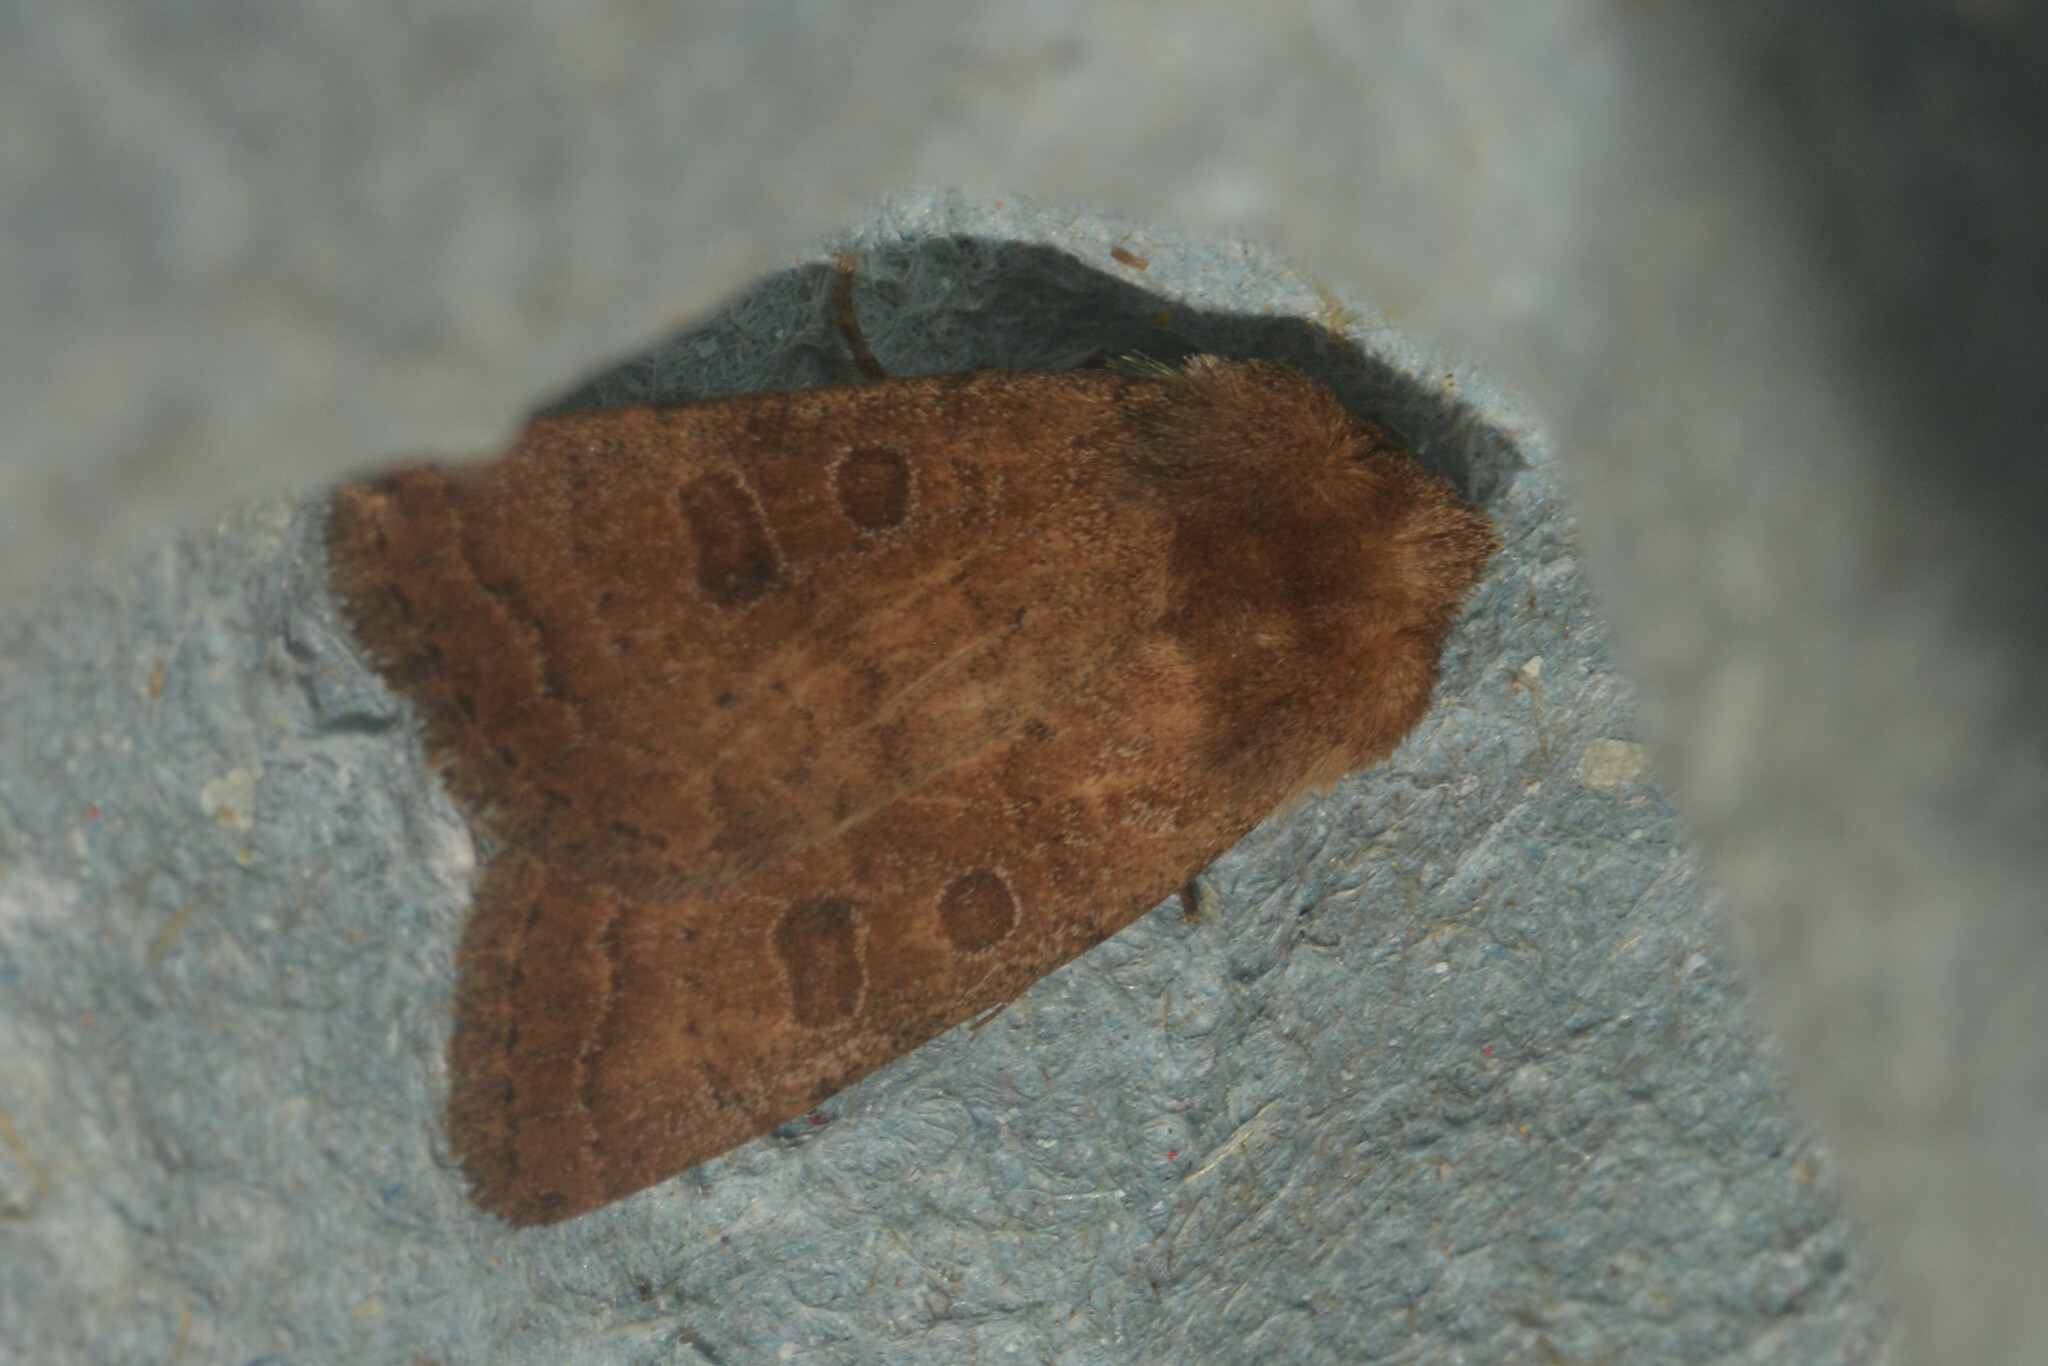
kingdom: Animalia
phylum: Arthropoda
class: Insecta
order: Lepidoptera
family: Noctuidae
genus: Hoplodrina
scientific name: Hoplodrina octogenaria
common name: Uncertain
